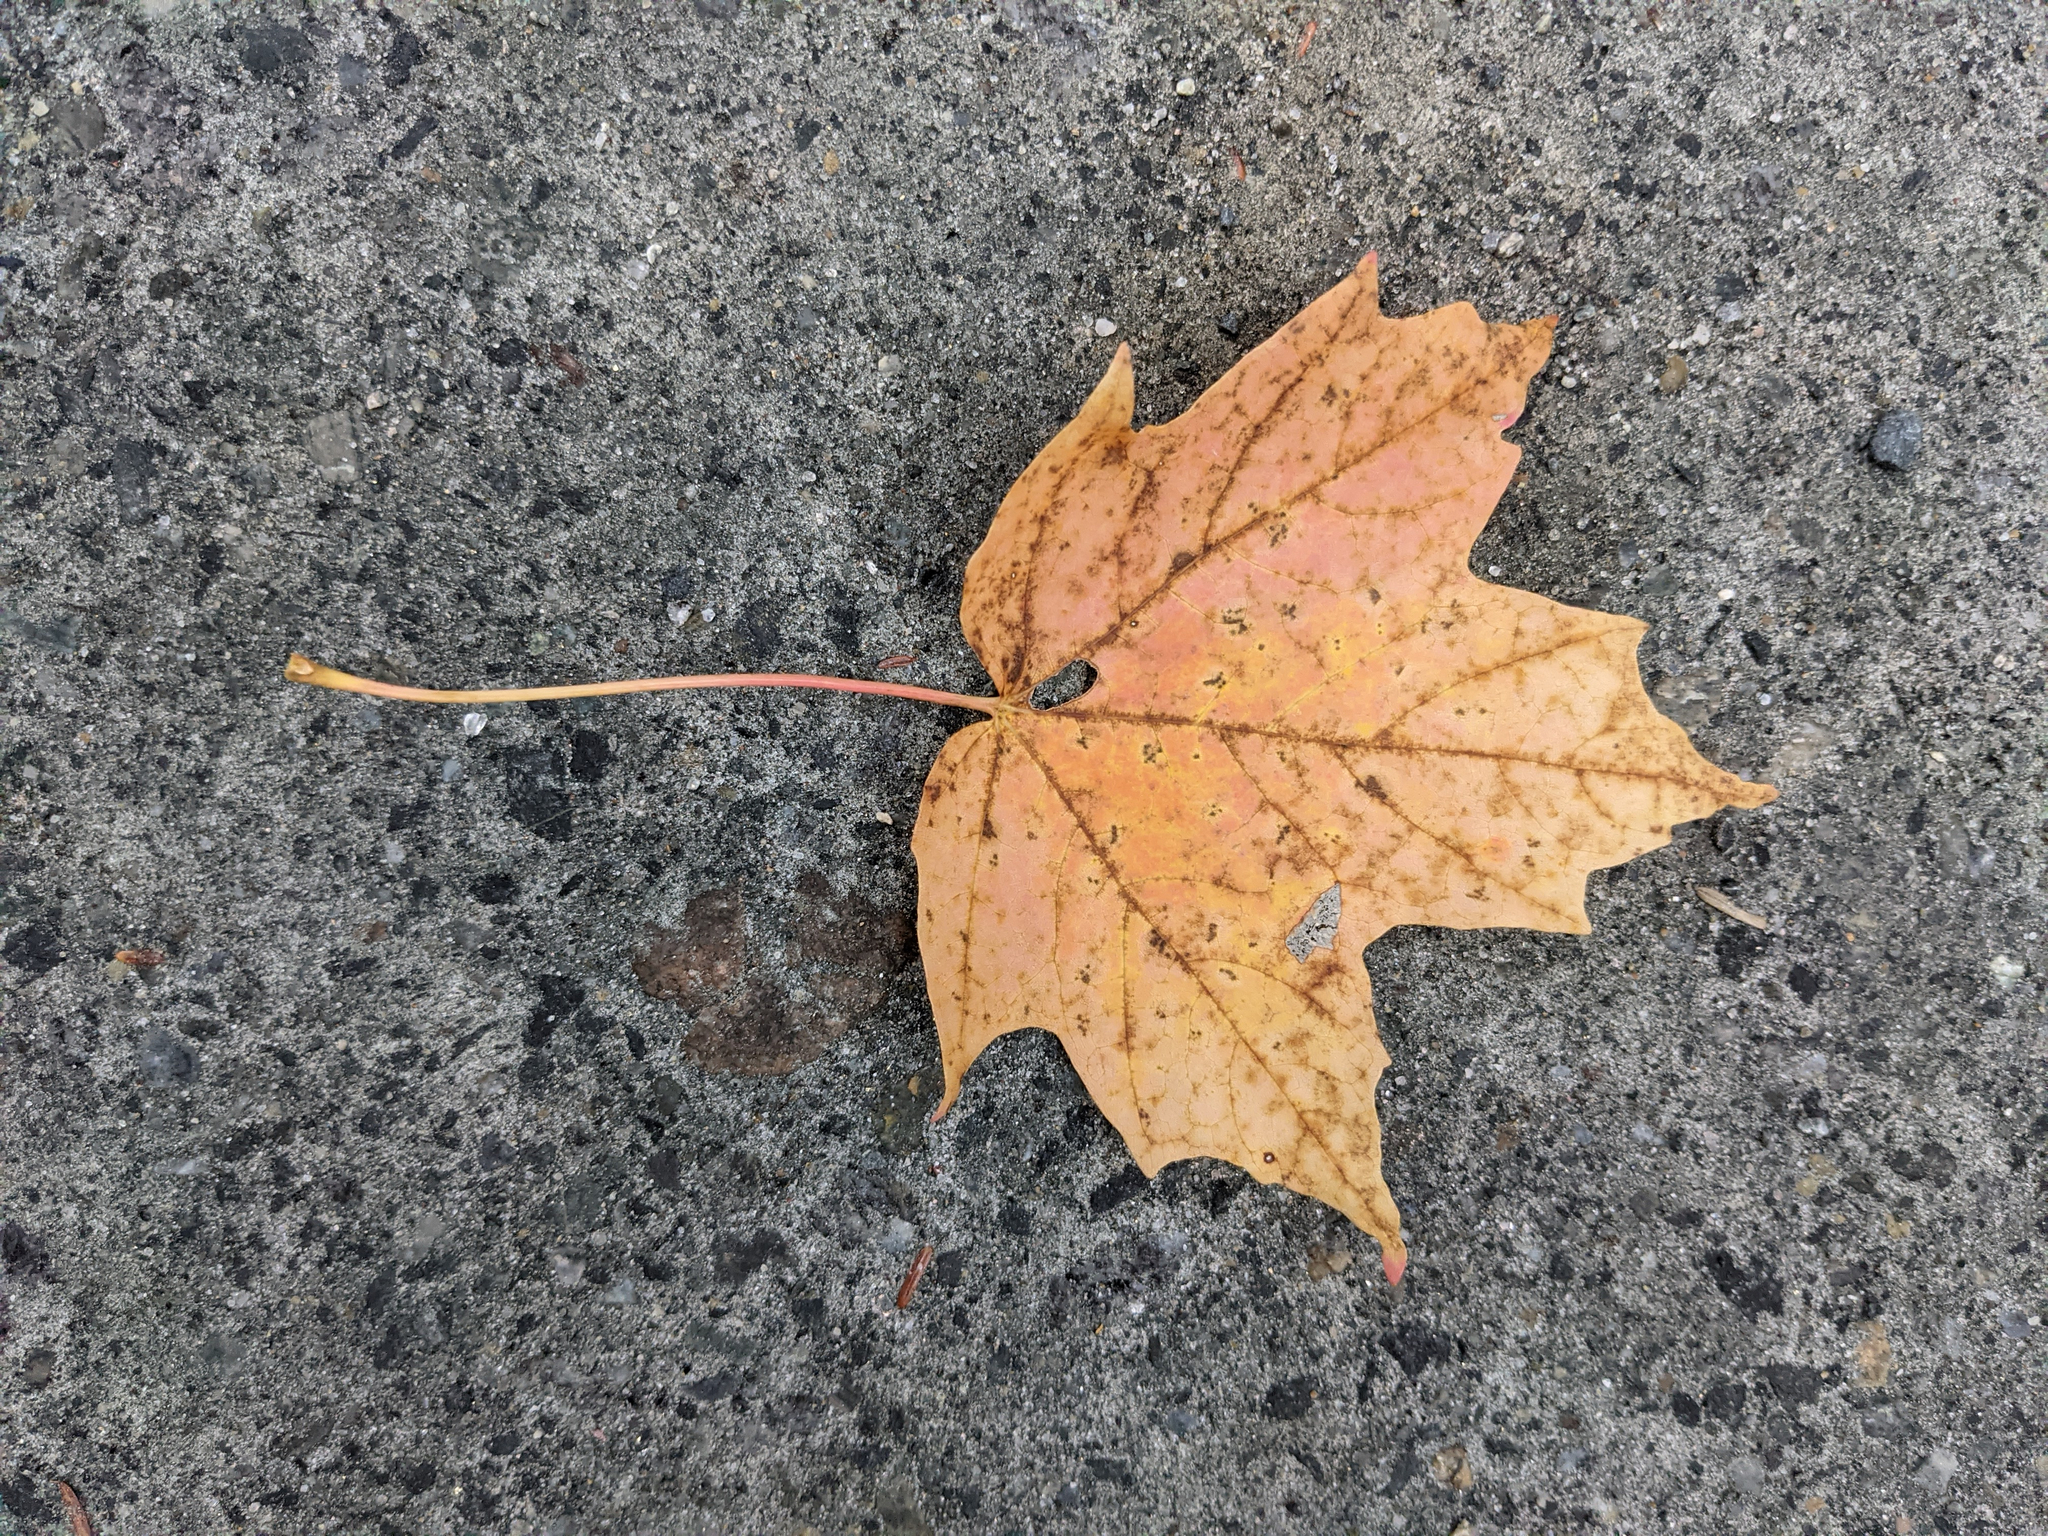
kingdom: Plantae
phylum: Tracheophyta
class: Magnoliopsida
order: Sapindales
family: Sapindaceae
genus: Acer
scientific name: Acer saccharum
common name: Sugar maple
